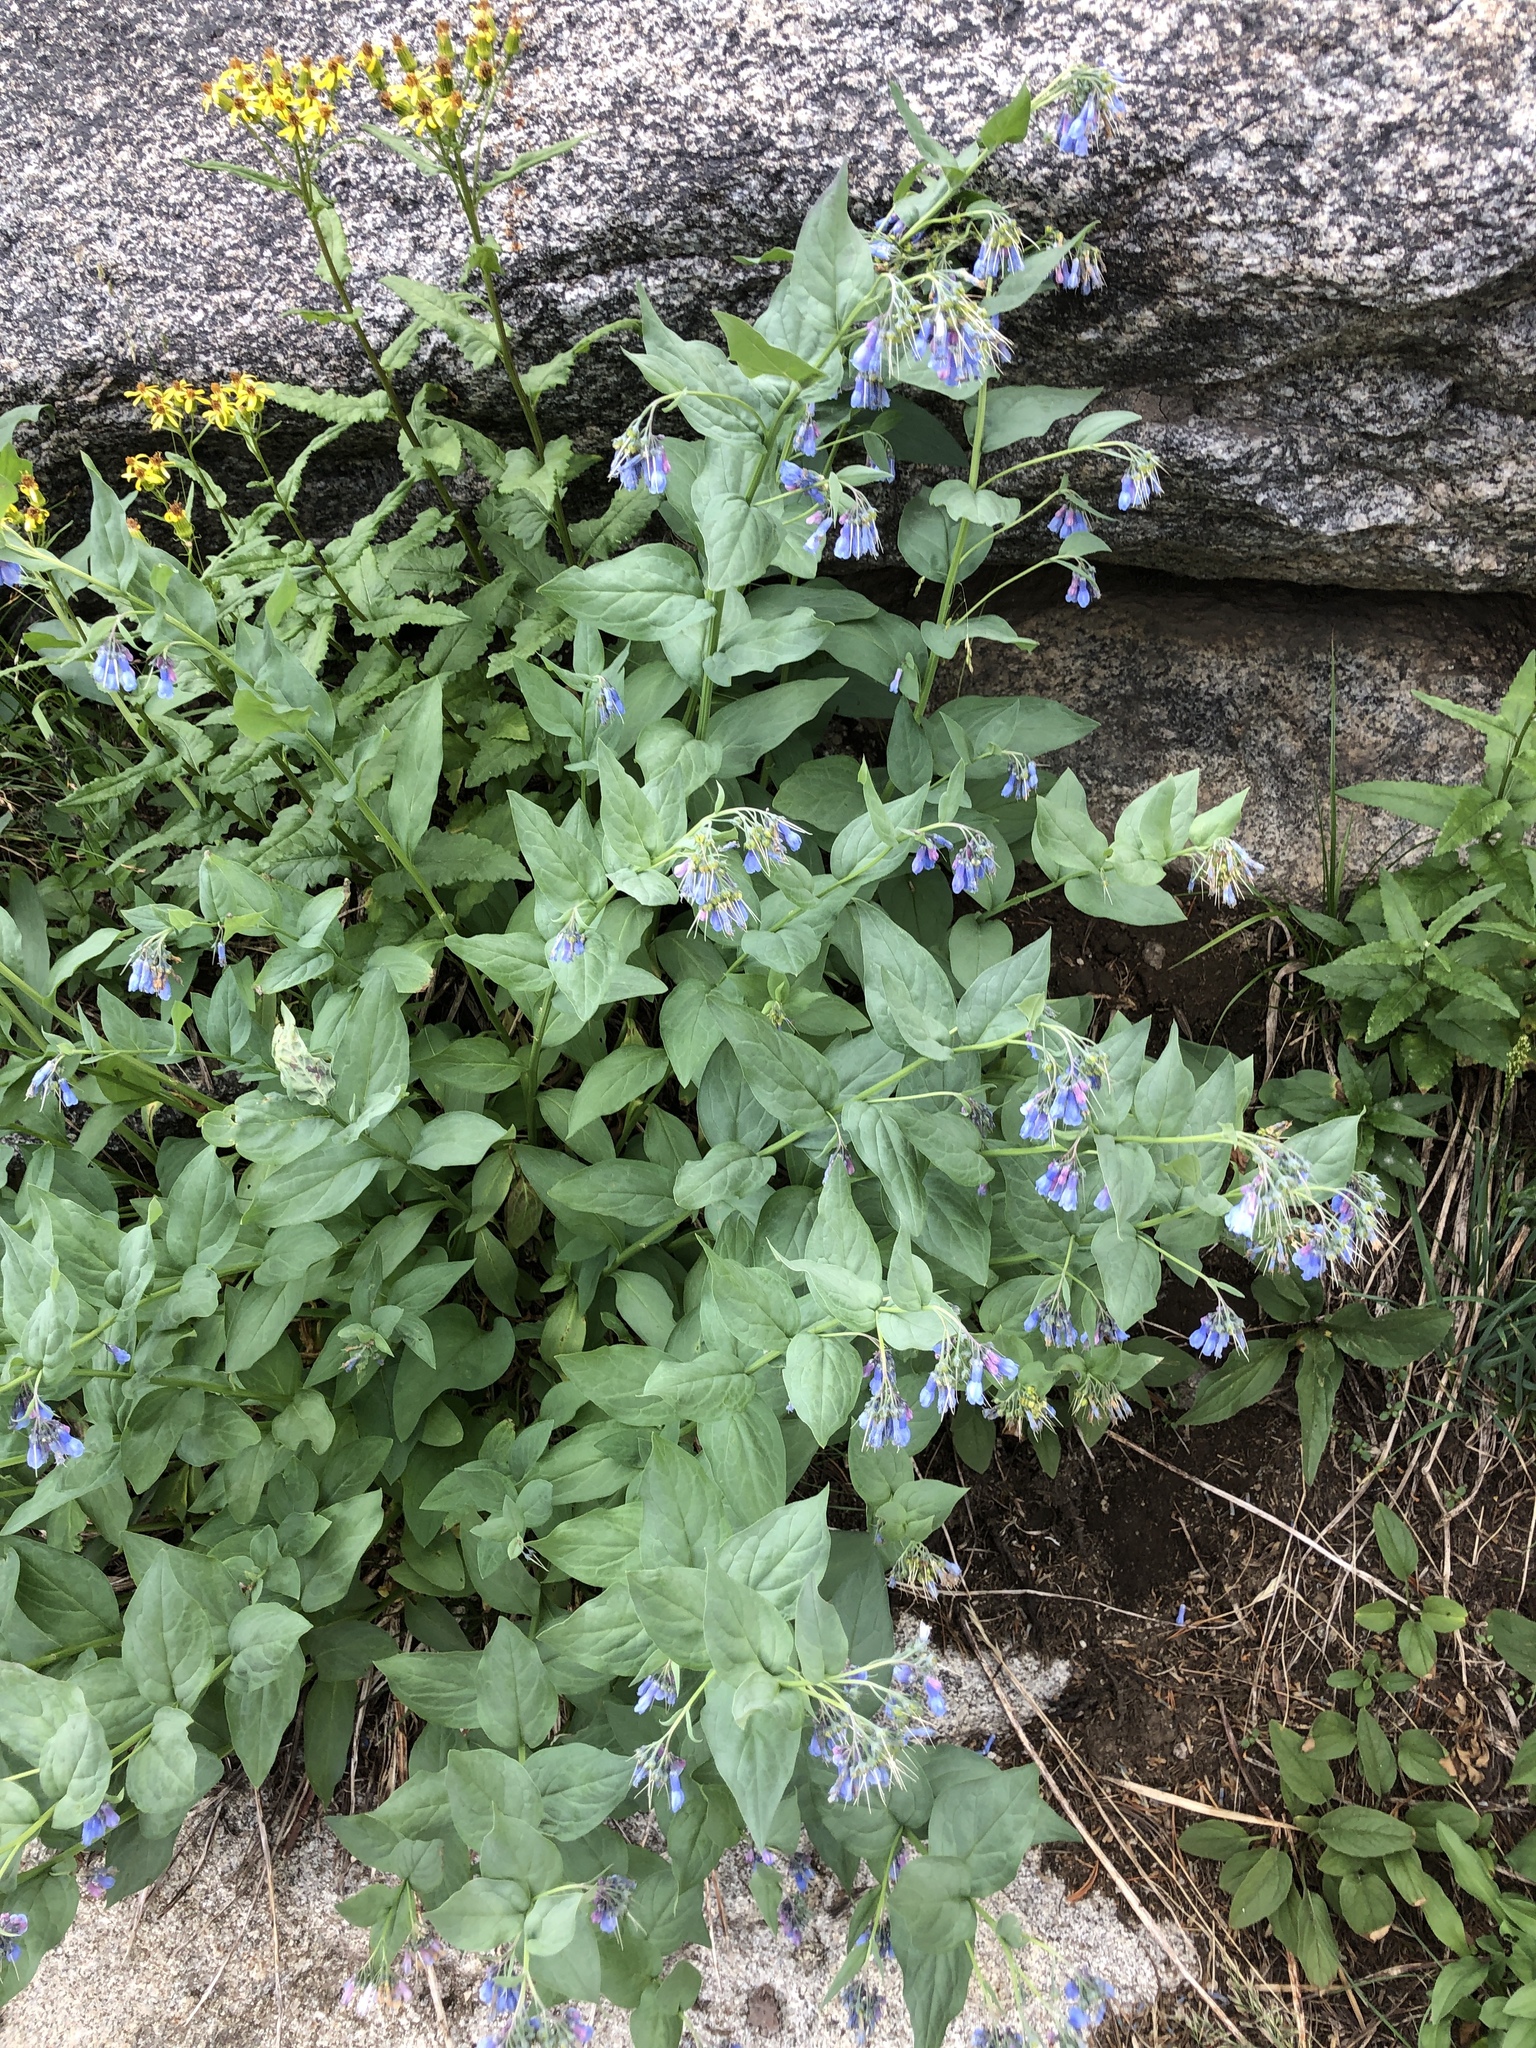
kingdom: Plantae
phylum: Tracheophyta
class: Magnoliopsida
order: Boraginales
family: Boraginaceae
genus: Mertensia
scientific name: Mertensia ciliata
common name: Tall chiming-bells
